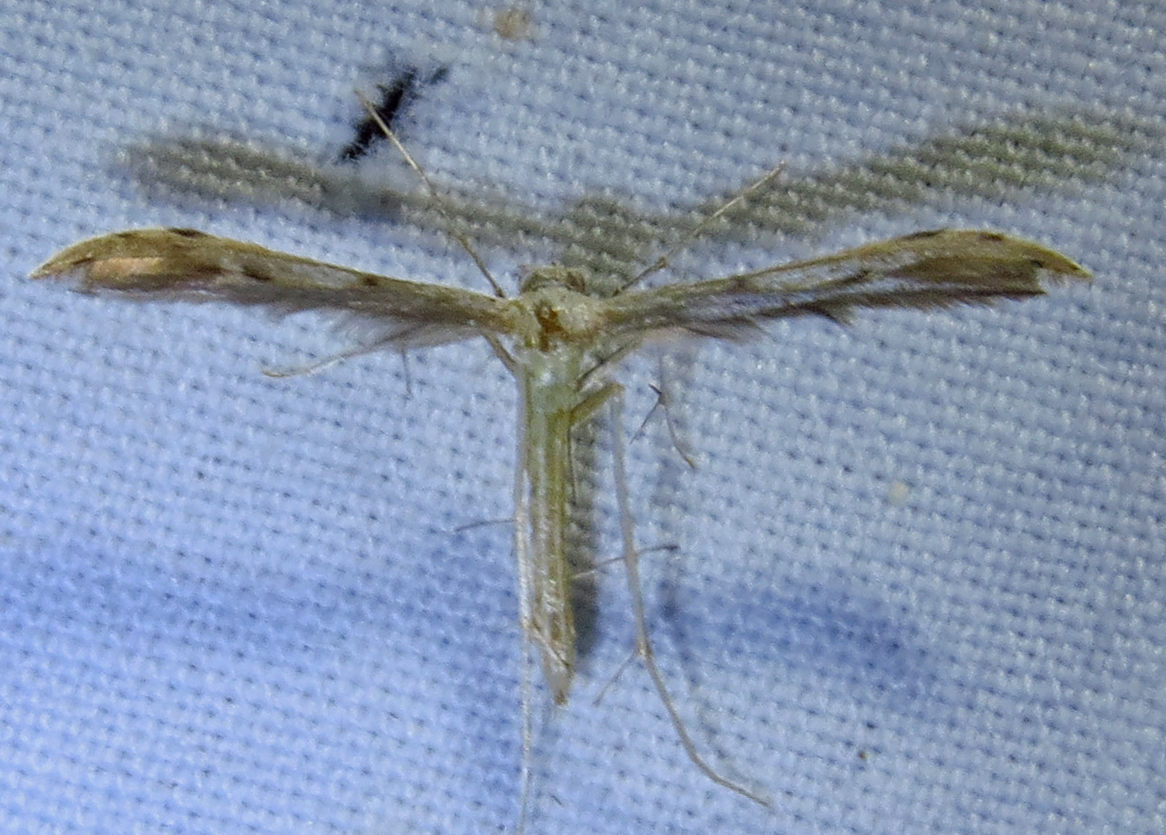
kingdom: Animalia
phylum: Arthropoda
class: Insecta
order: Lepidoptera
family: Pterophoridae
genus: Pselnophorus
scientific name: Pselnophorus belfragei
